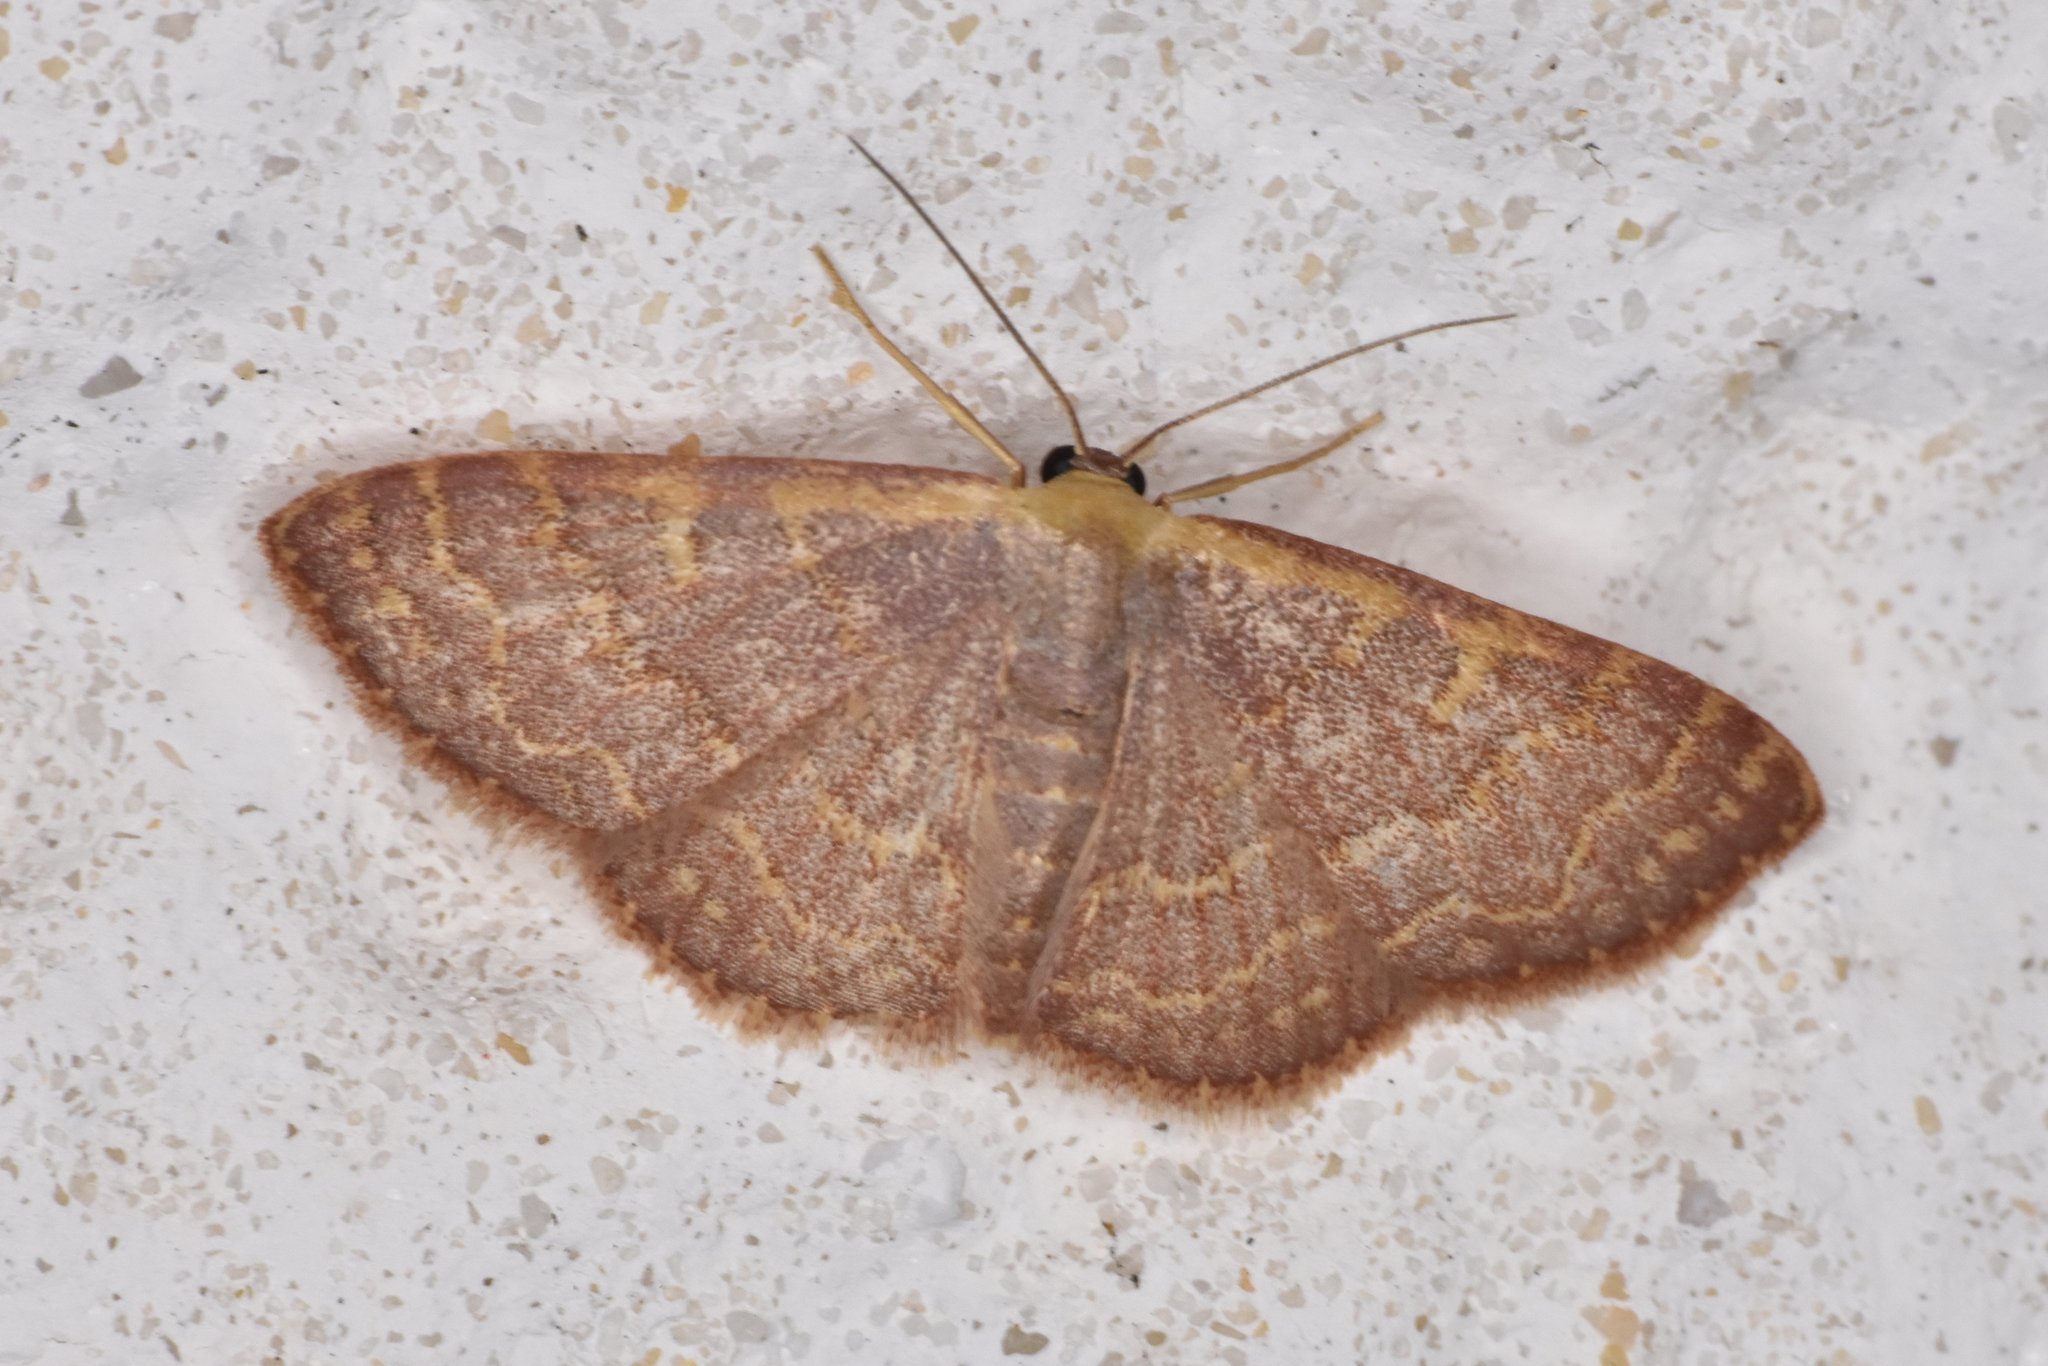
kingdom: Animalia
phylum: Arthropoda
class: Insecta
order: Lepidoptera
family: Geometridae
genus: Leptostales
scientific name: Leptostales pannaria
